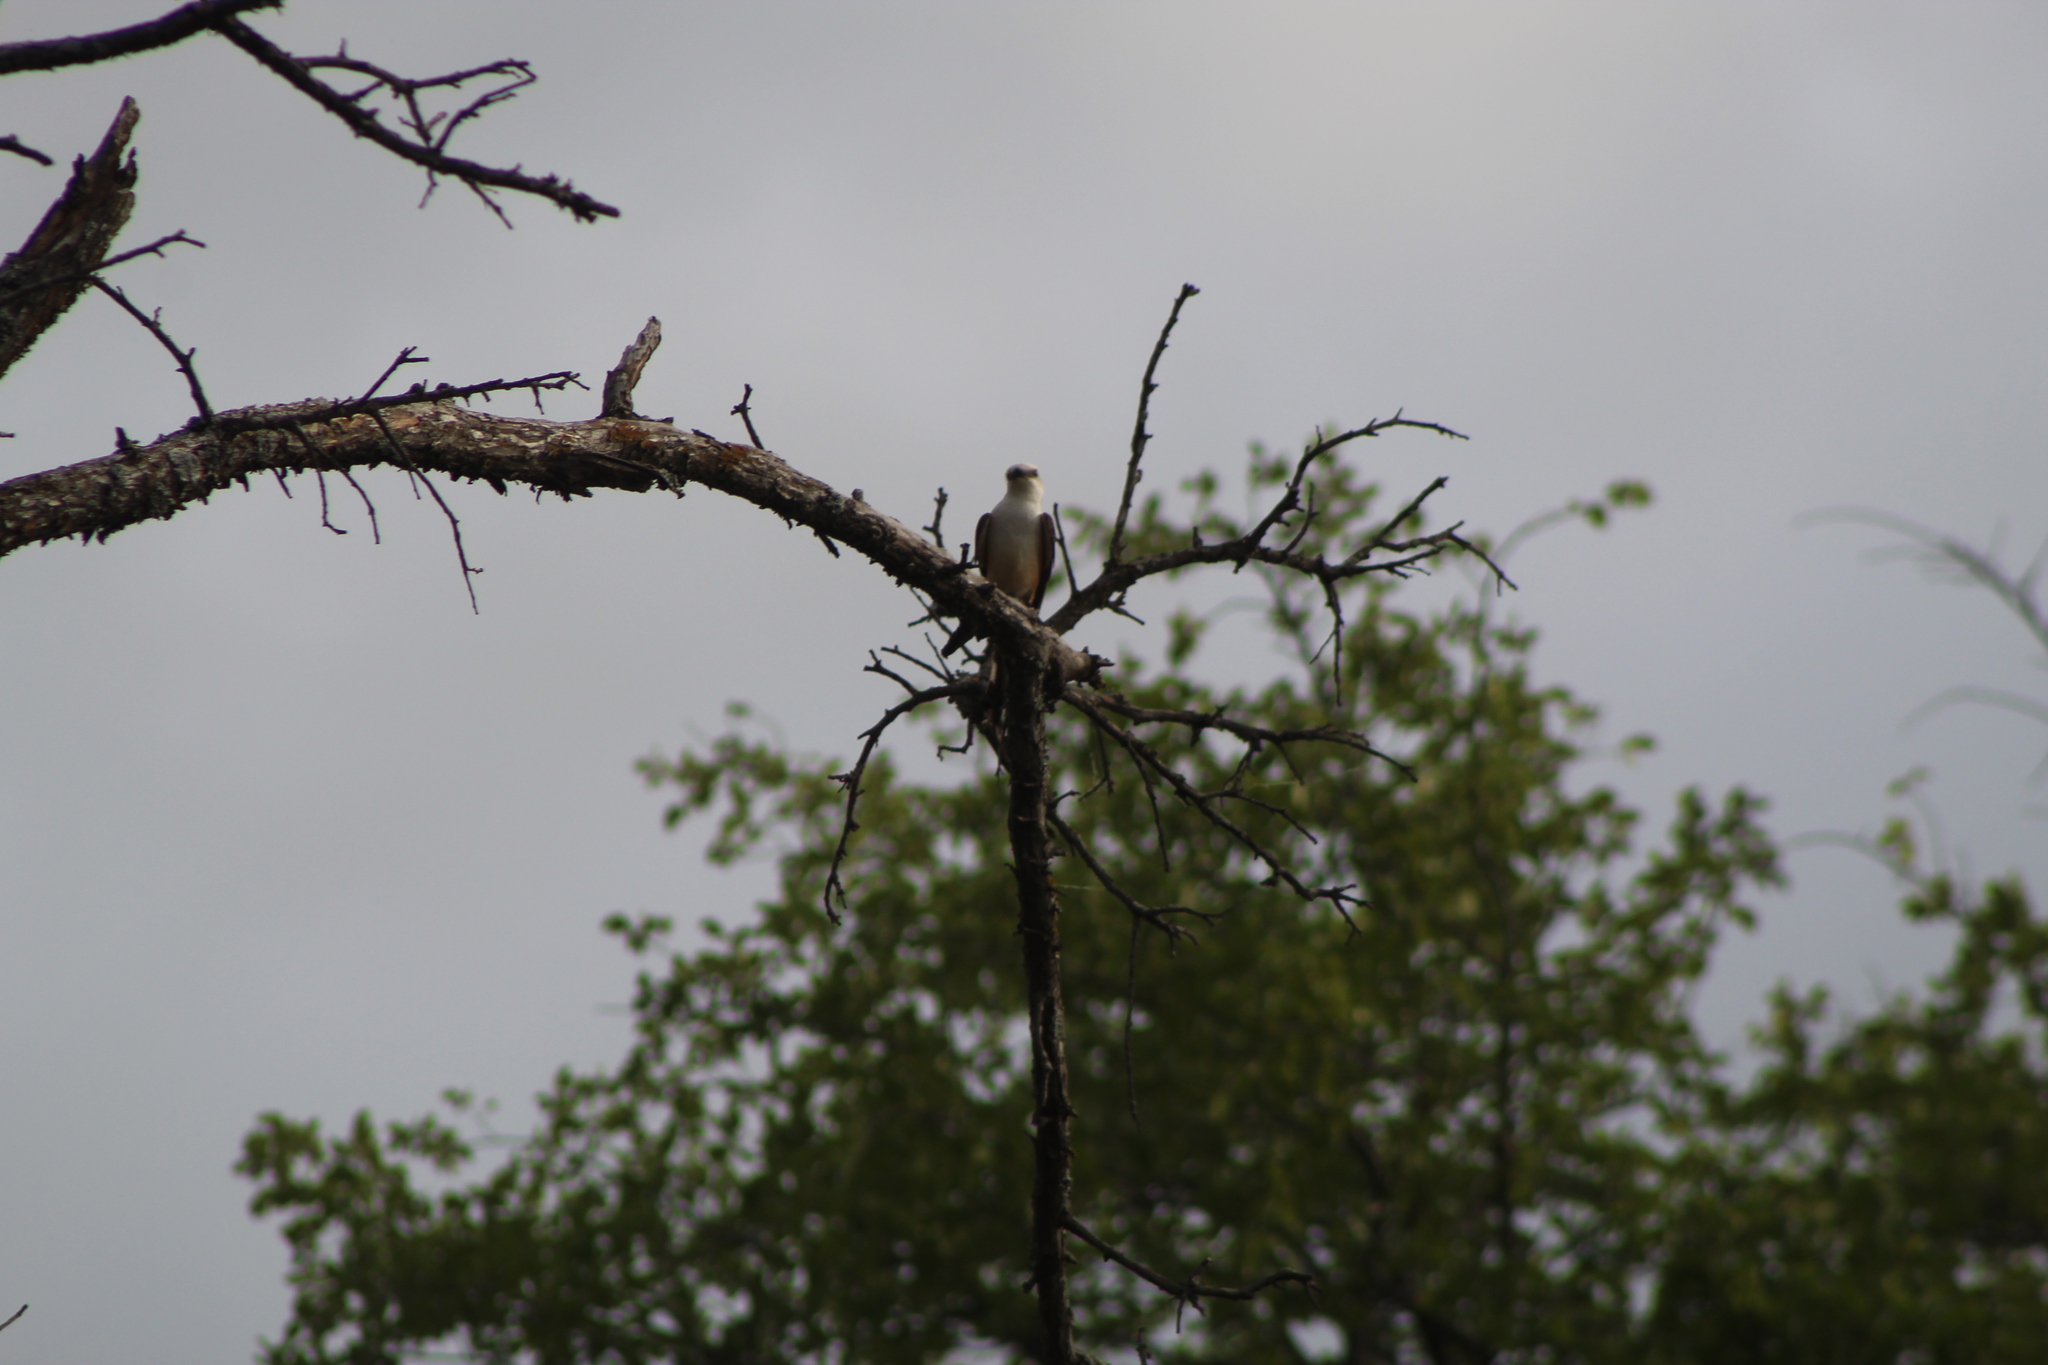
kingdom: Animalia
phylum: Chordata
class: Aves
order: Passeriformes
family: Tyrannidae
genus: Tyrannus
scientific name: Tyrannus forficatus
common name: Scissor-tailed flycatcher
